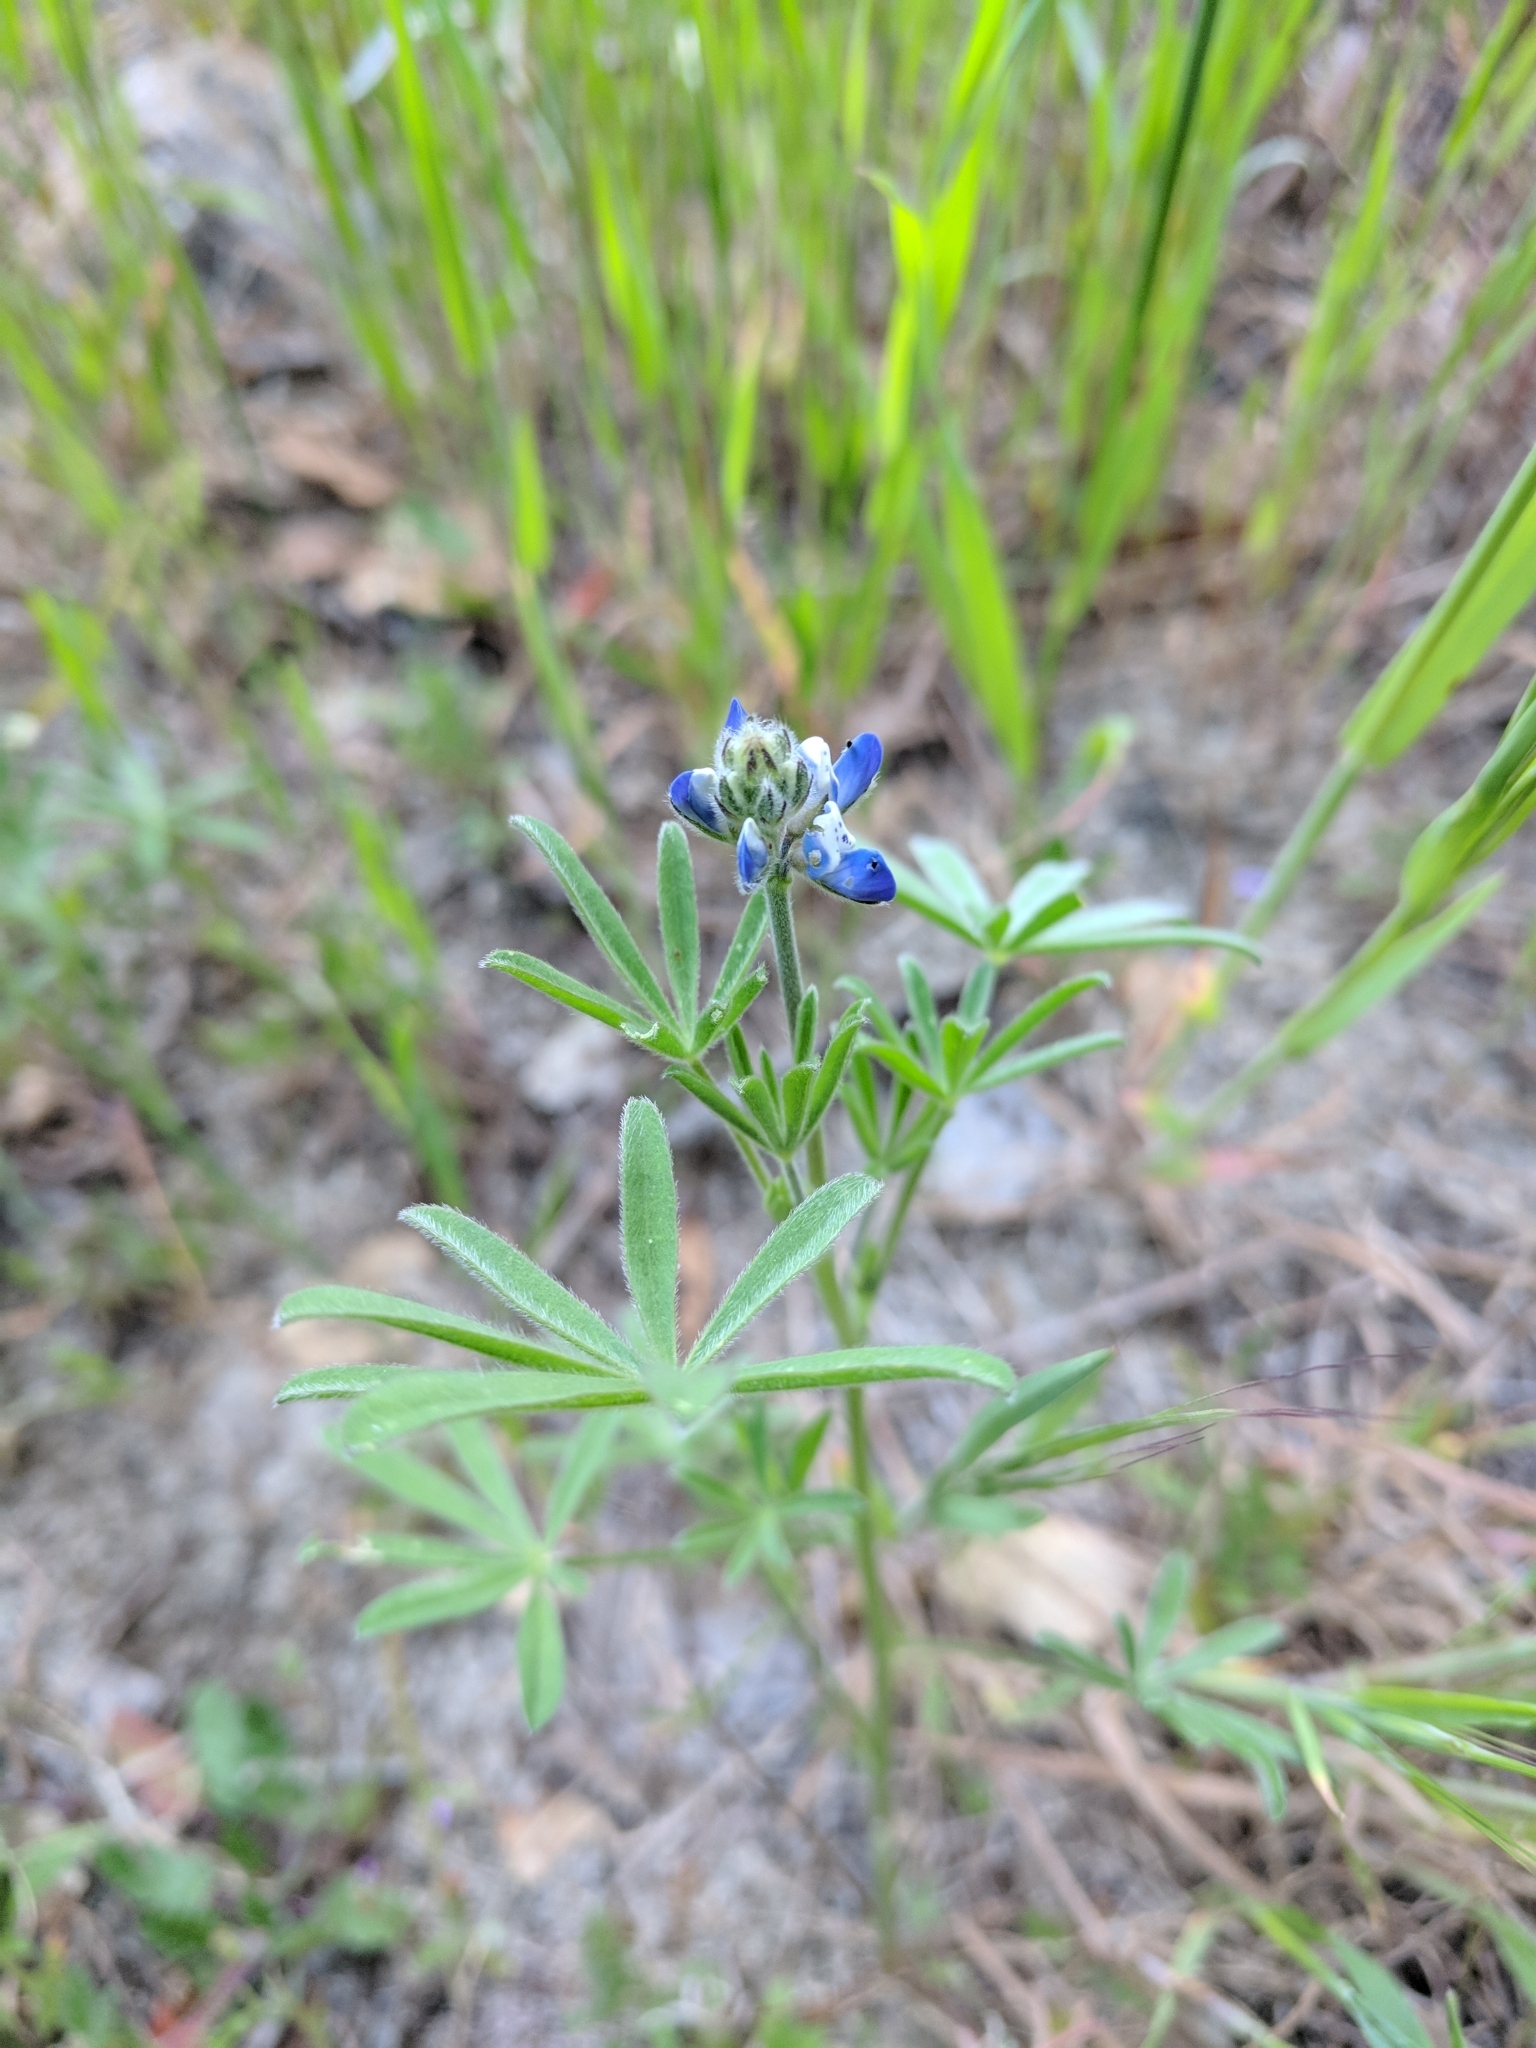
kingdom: Plantae
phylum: Tracheophyta
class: Magnoliopsida
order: Fabales
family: Fabaceae
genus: Lupinus
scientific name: Lupinus bicolor
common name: Miniature lupine
